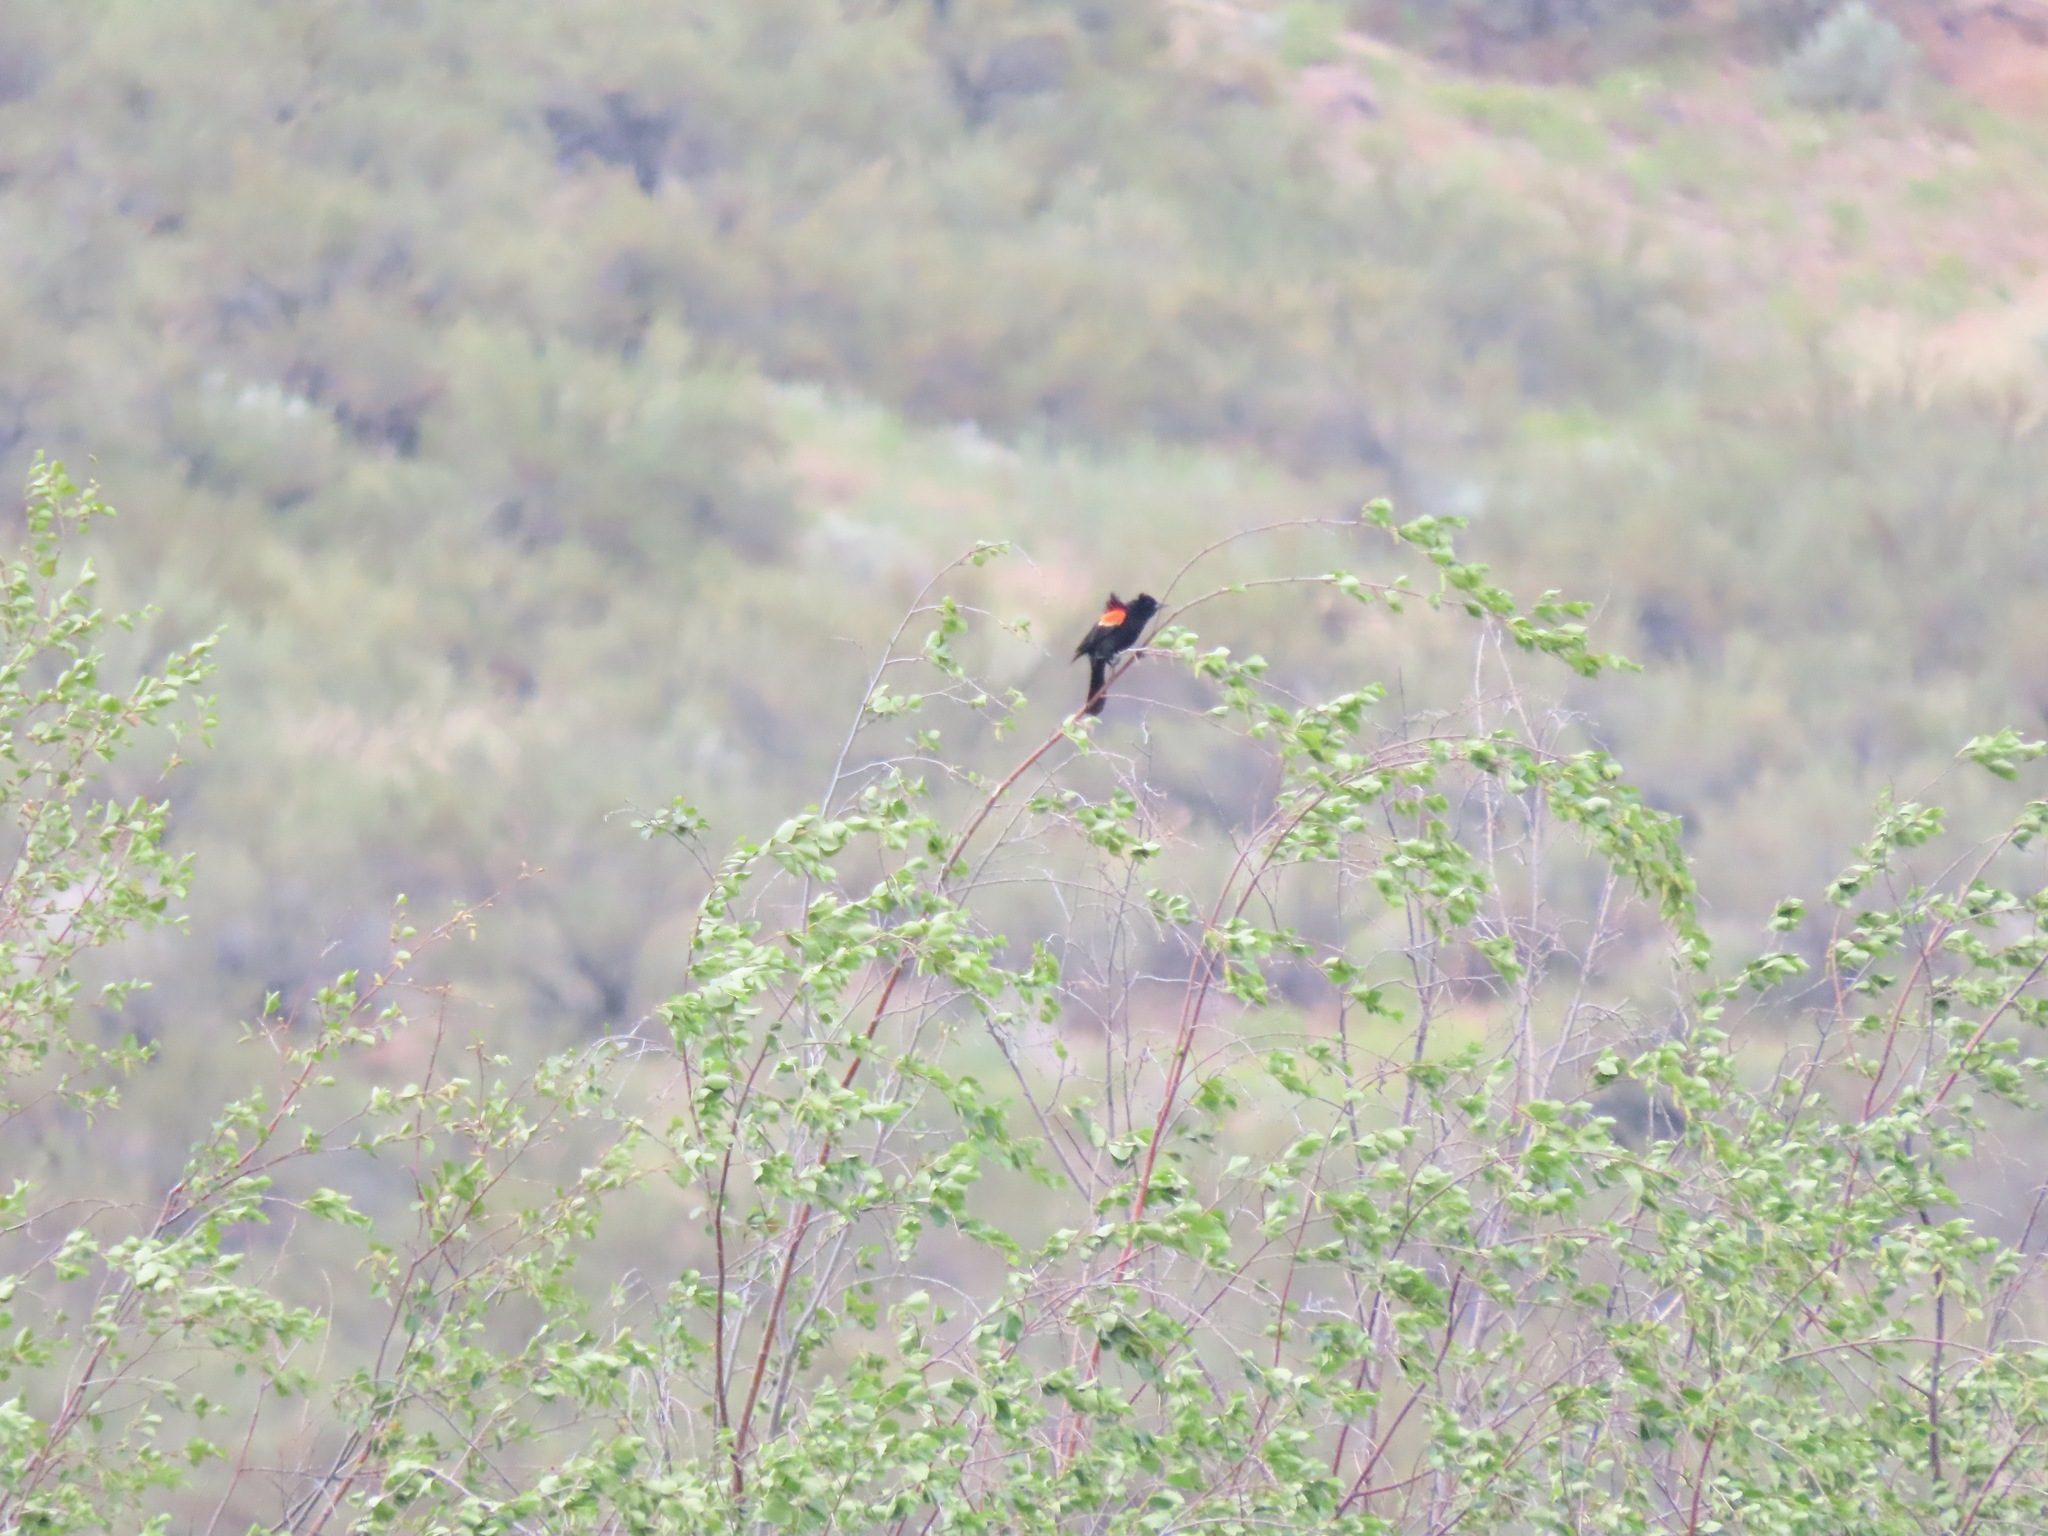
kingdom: Animalia
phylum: Chordata
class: Aves
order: Passeriformes
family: Icteridae
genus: Agelaius
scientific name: Agelaius phoeniceus
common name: Red-winged blackbird
